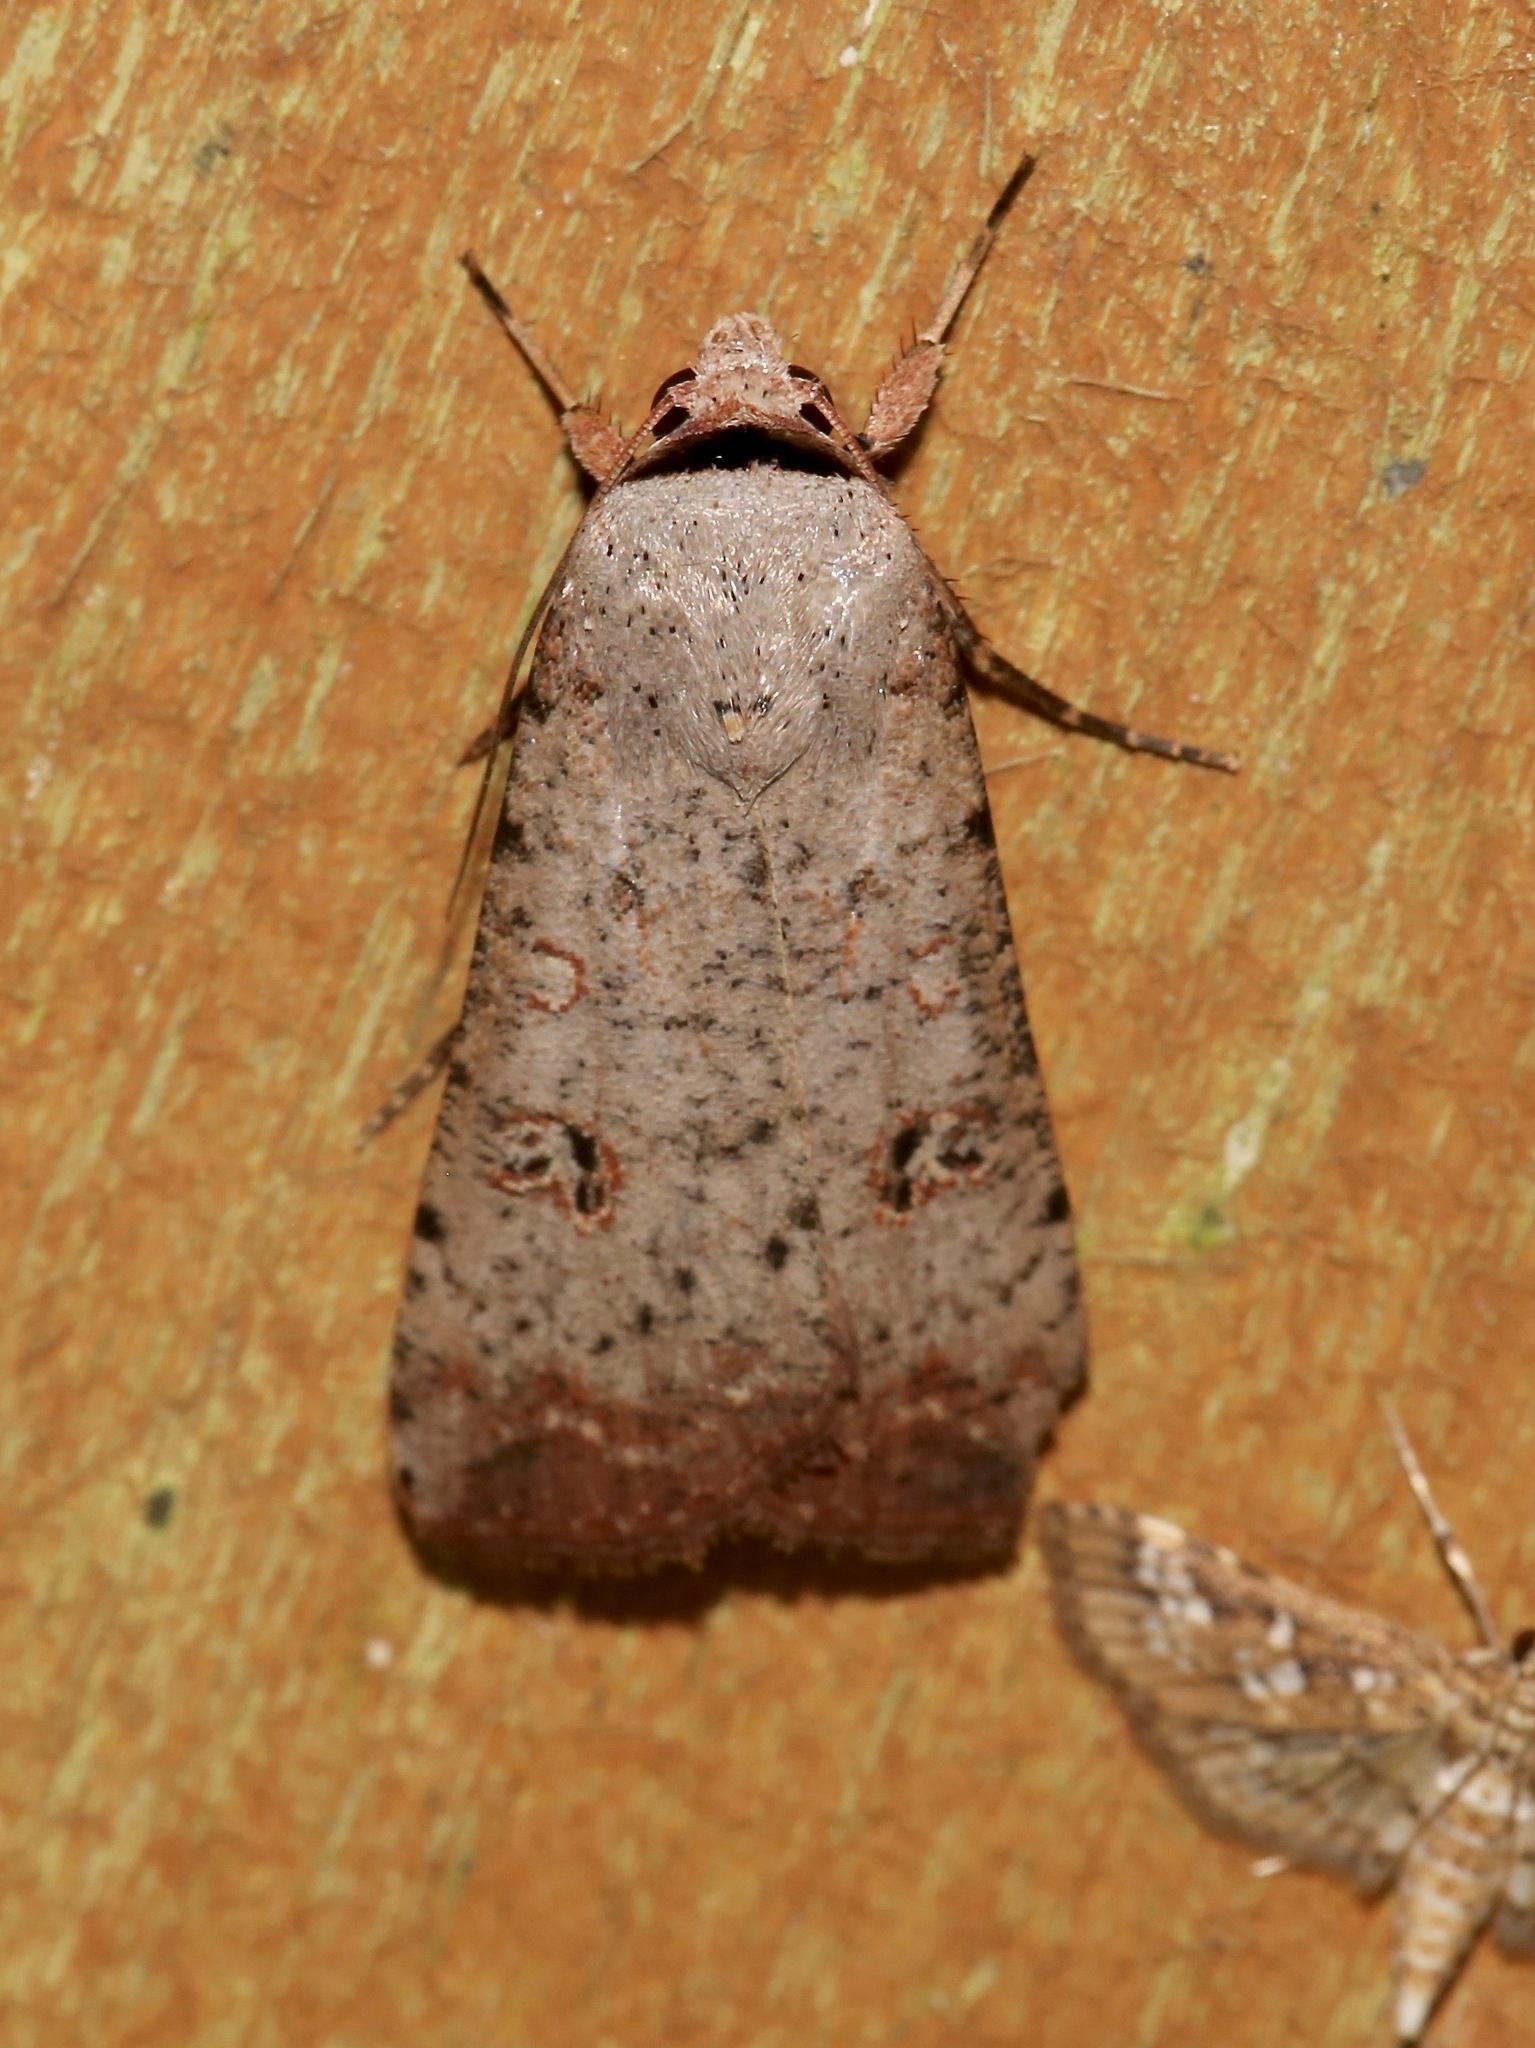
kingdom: Animalia
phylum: Arthropoda
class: Insecta
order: Lepidoptera
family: Noctuidae
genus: Anicla
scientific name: Anicla infecta
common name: Green cutworm
